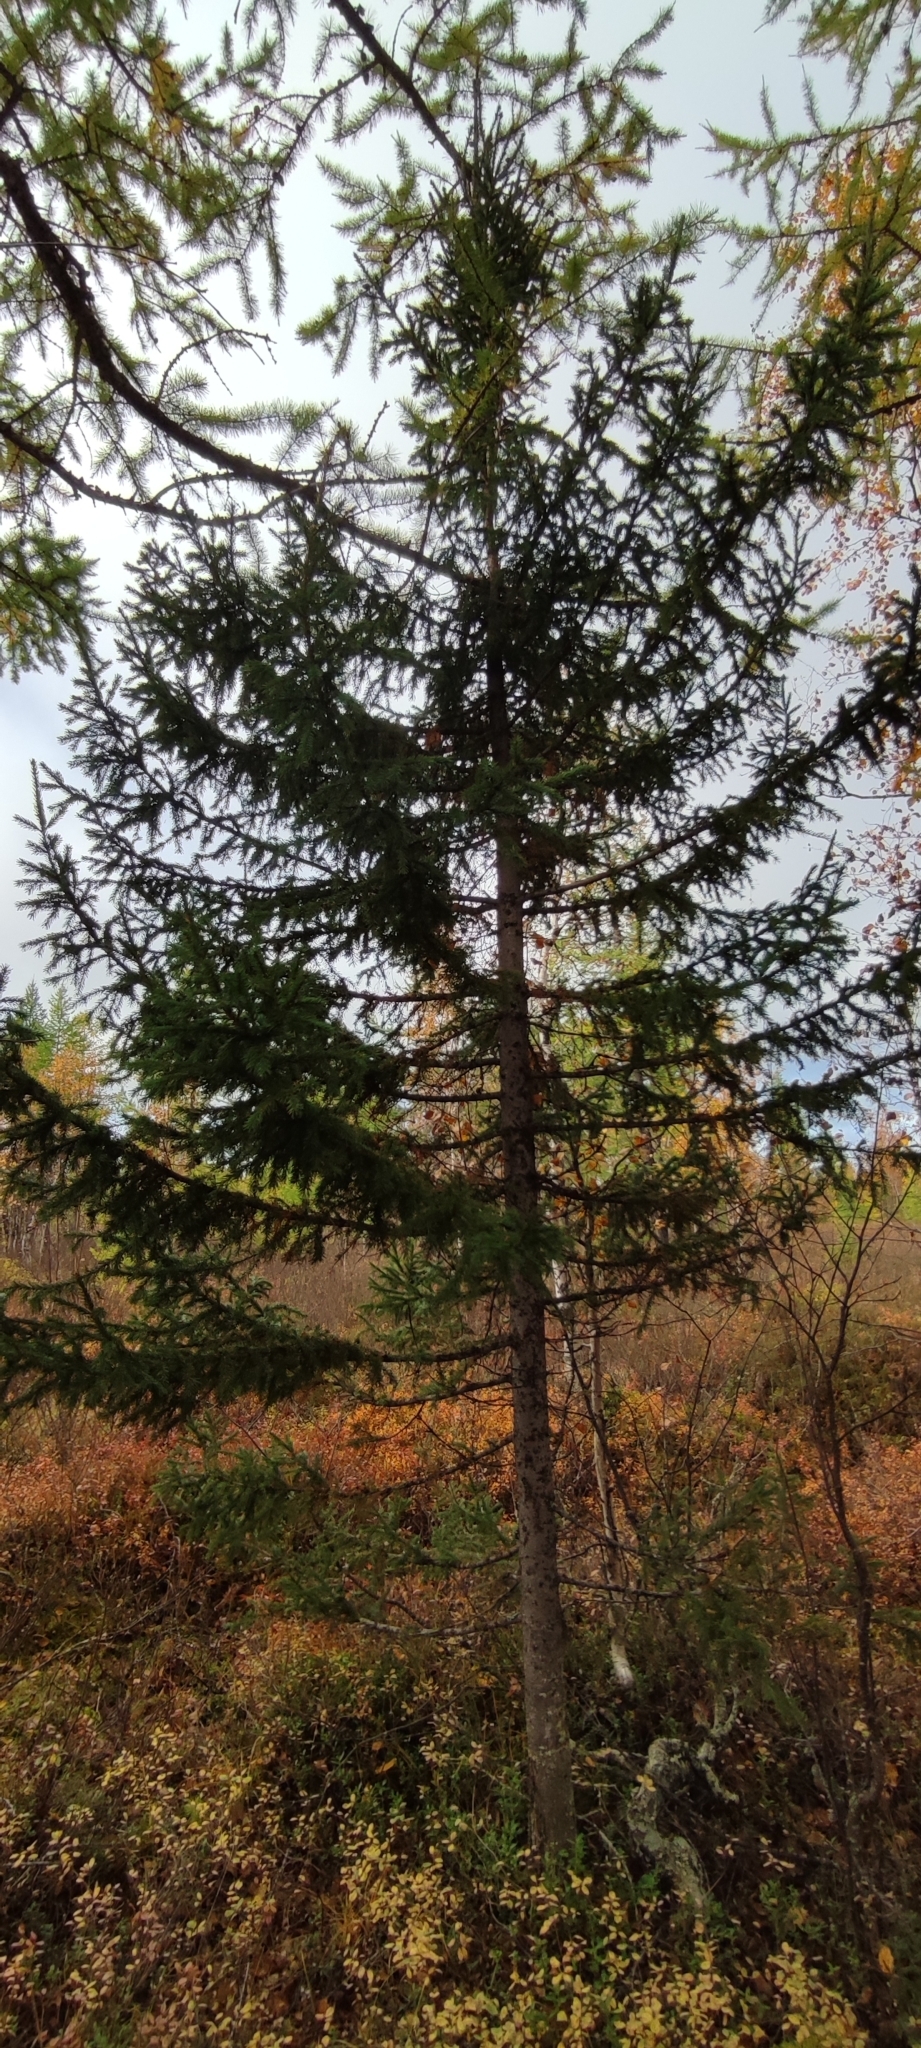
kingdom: Plantae
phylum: Tracheophyta
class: Pinopsida
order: Pinales
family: Pinaceae
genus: Picea
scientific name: Picea obovata
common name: Siberian spruce
